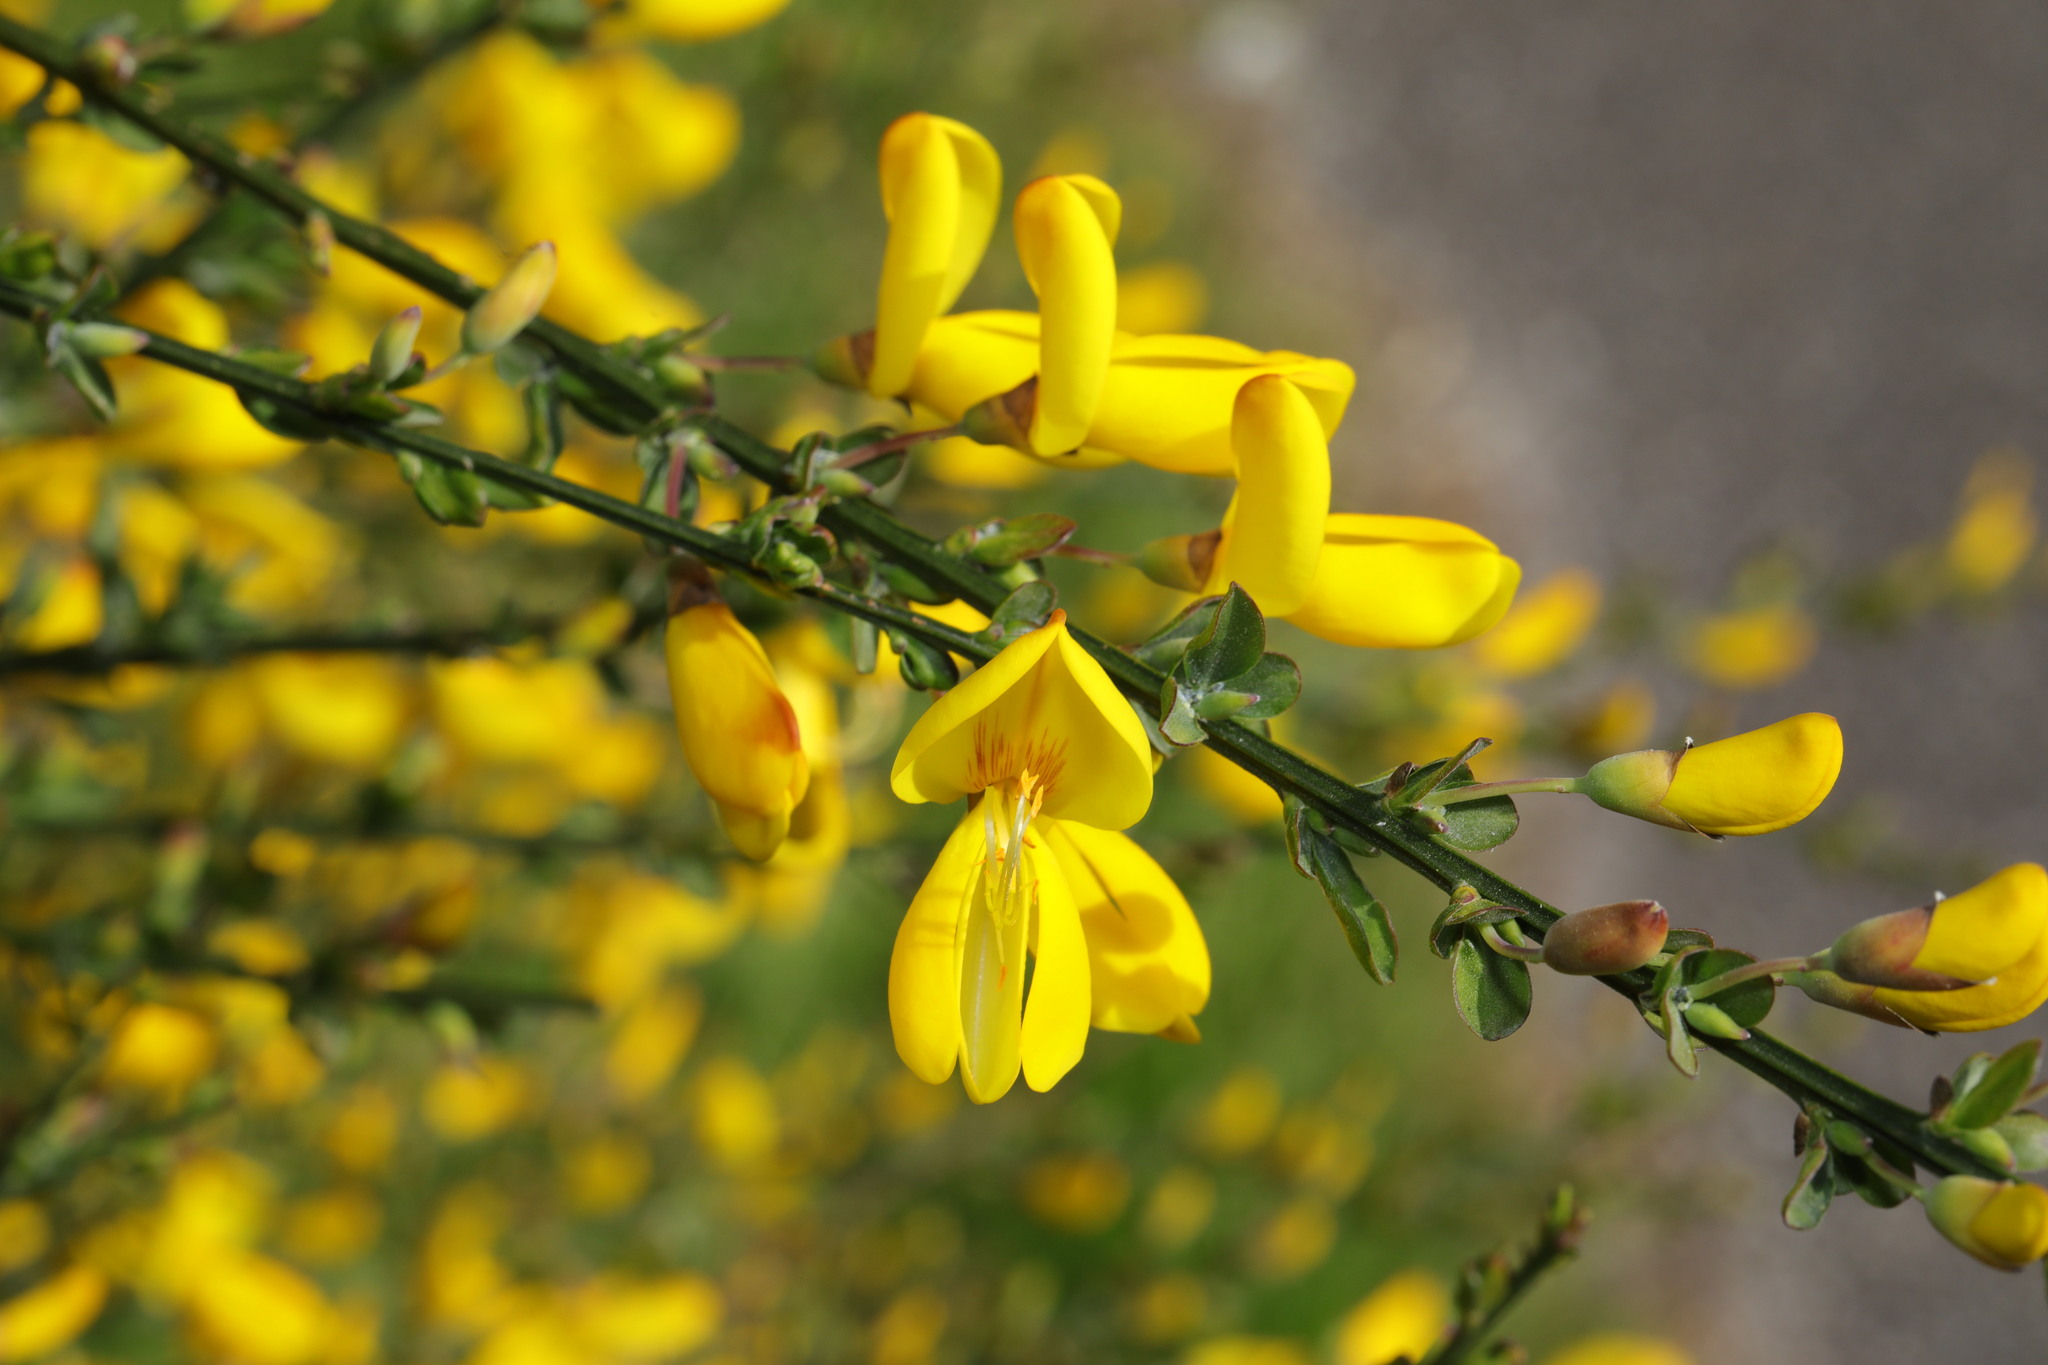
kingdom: Plantae
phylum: Tracheophyta
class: Magnoliopsida
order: Fabales
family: Fabaceae
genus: Cytisus
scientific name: Cytisus scoparius
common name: Scotch broom
